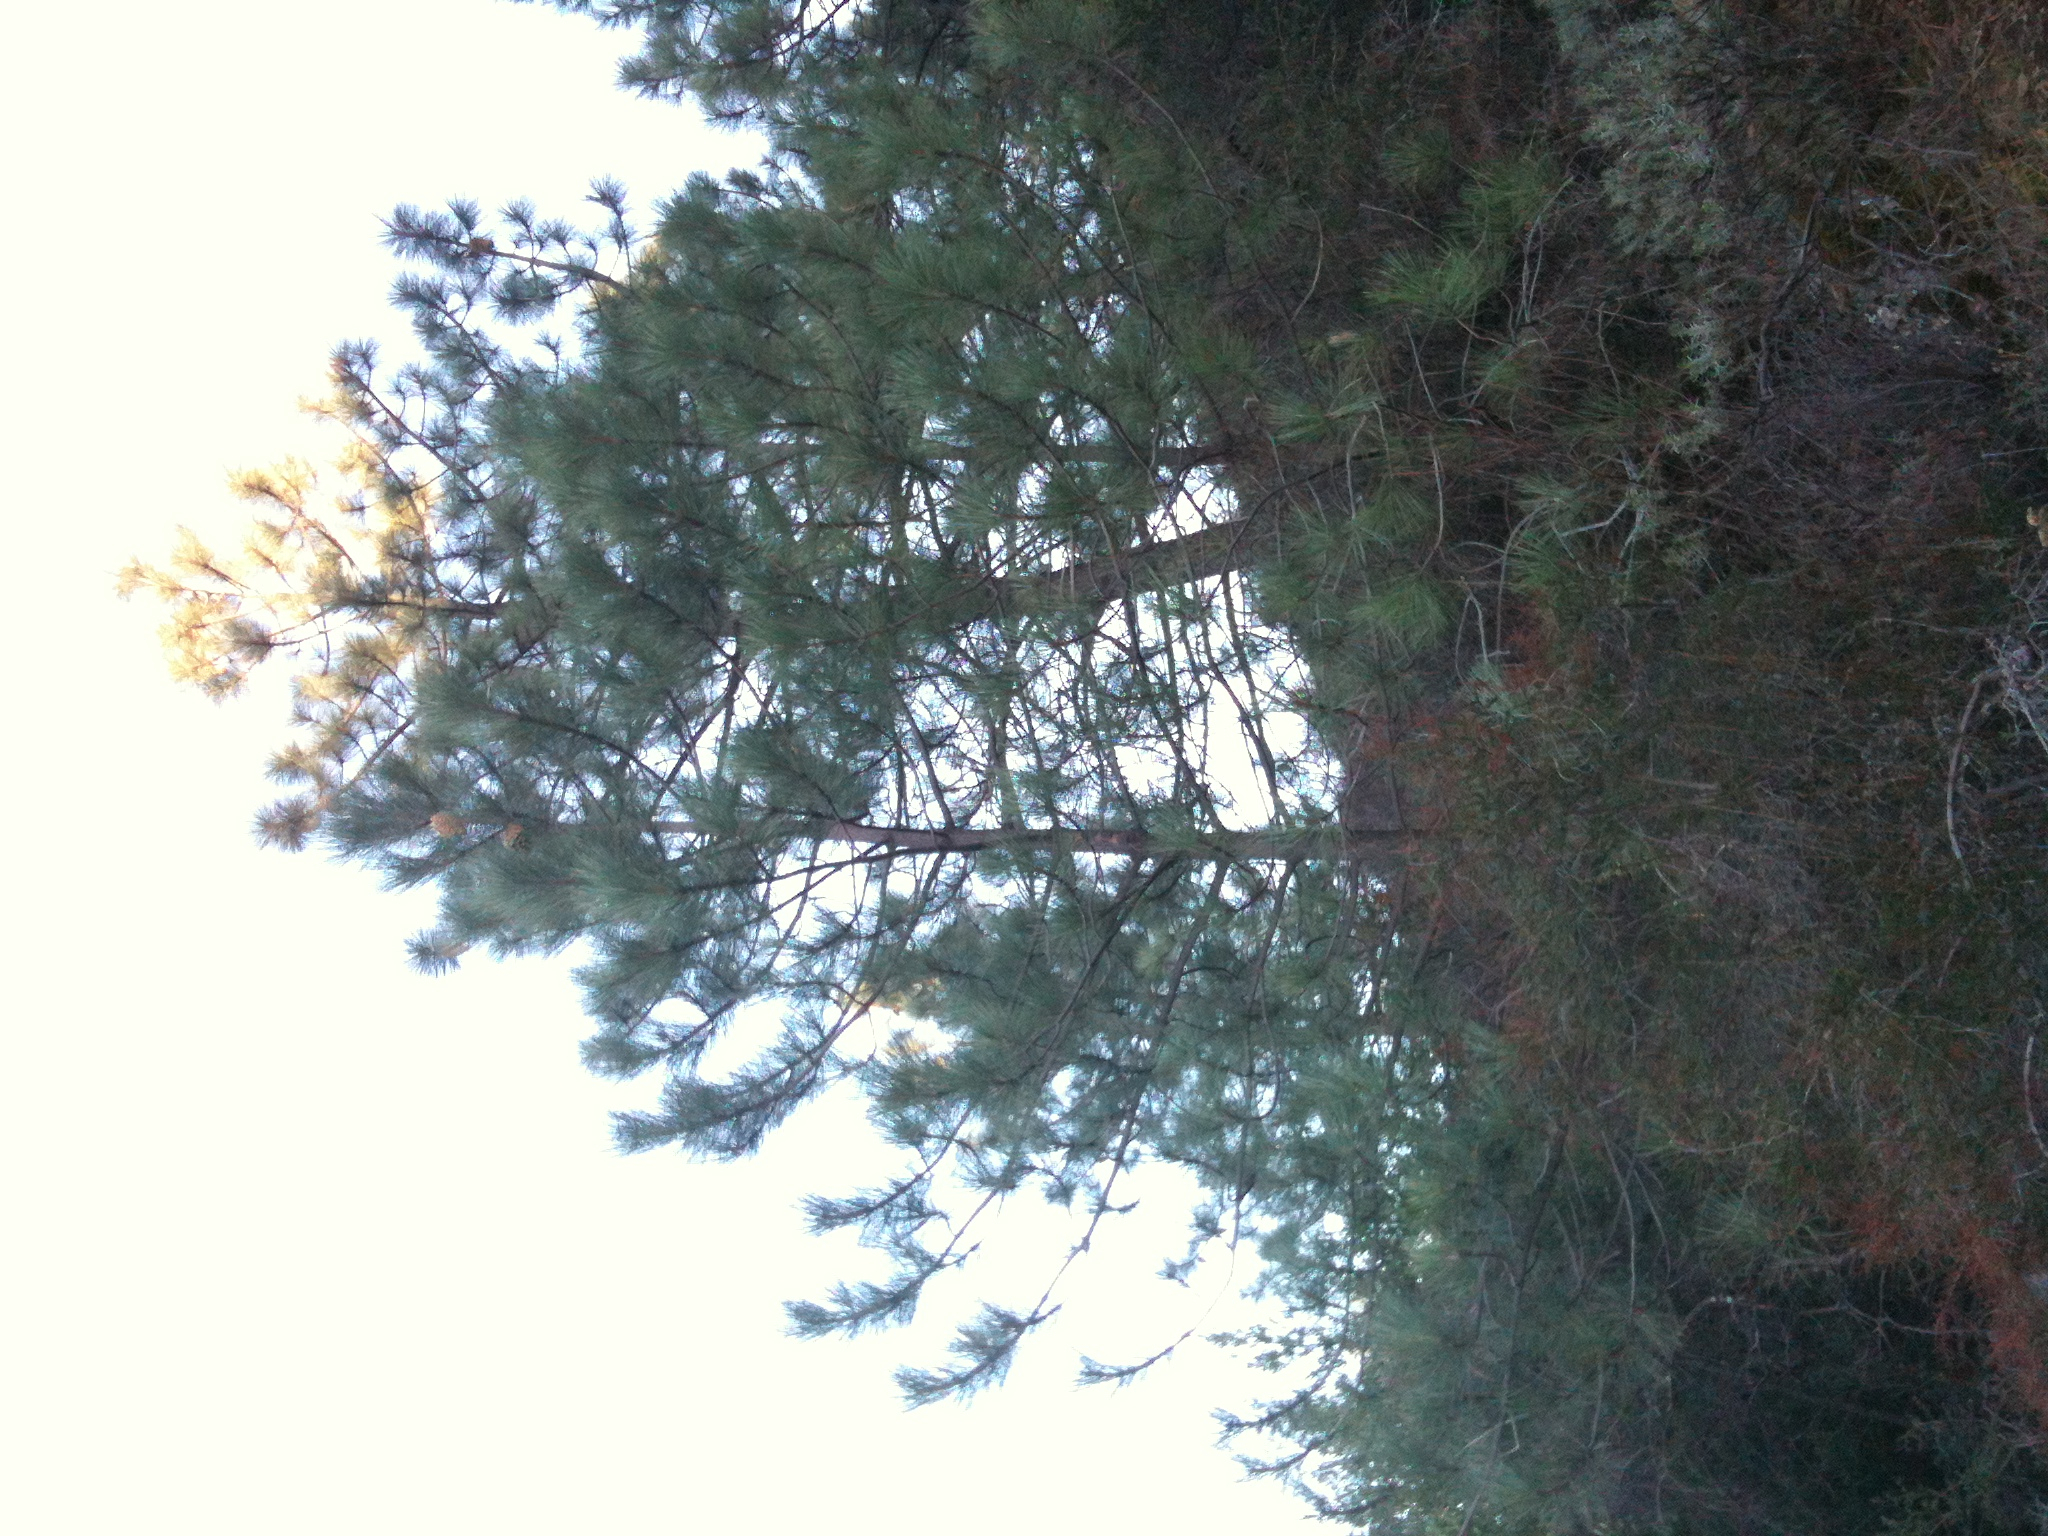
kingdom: Plantae
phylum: Tracheophyta
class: Pinopsida
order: Pinales
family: Pinaceae
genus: Pinus
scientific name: Pinus coulteri
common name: Coulter pine
